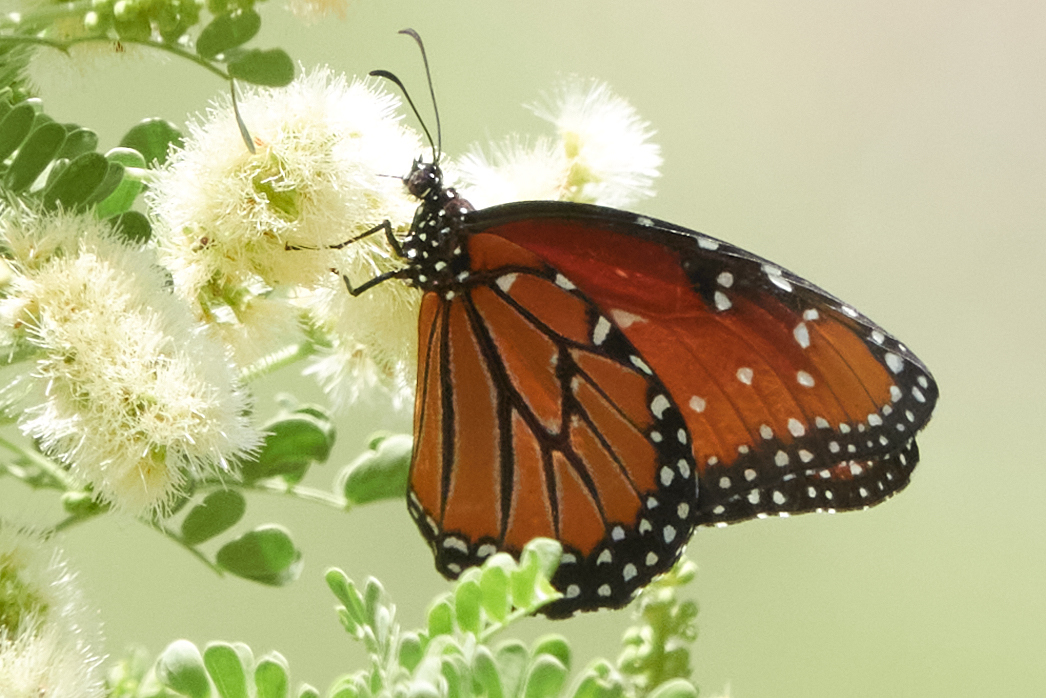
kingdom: Animalia
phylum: Arthropoda
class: Insecta
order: Lepidoptera
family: Nymphalidae
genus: Danaus
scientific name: Danaus gilippus
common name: Queen
